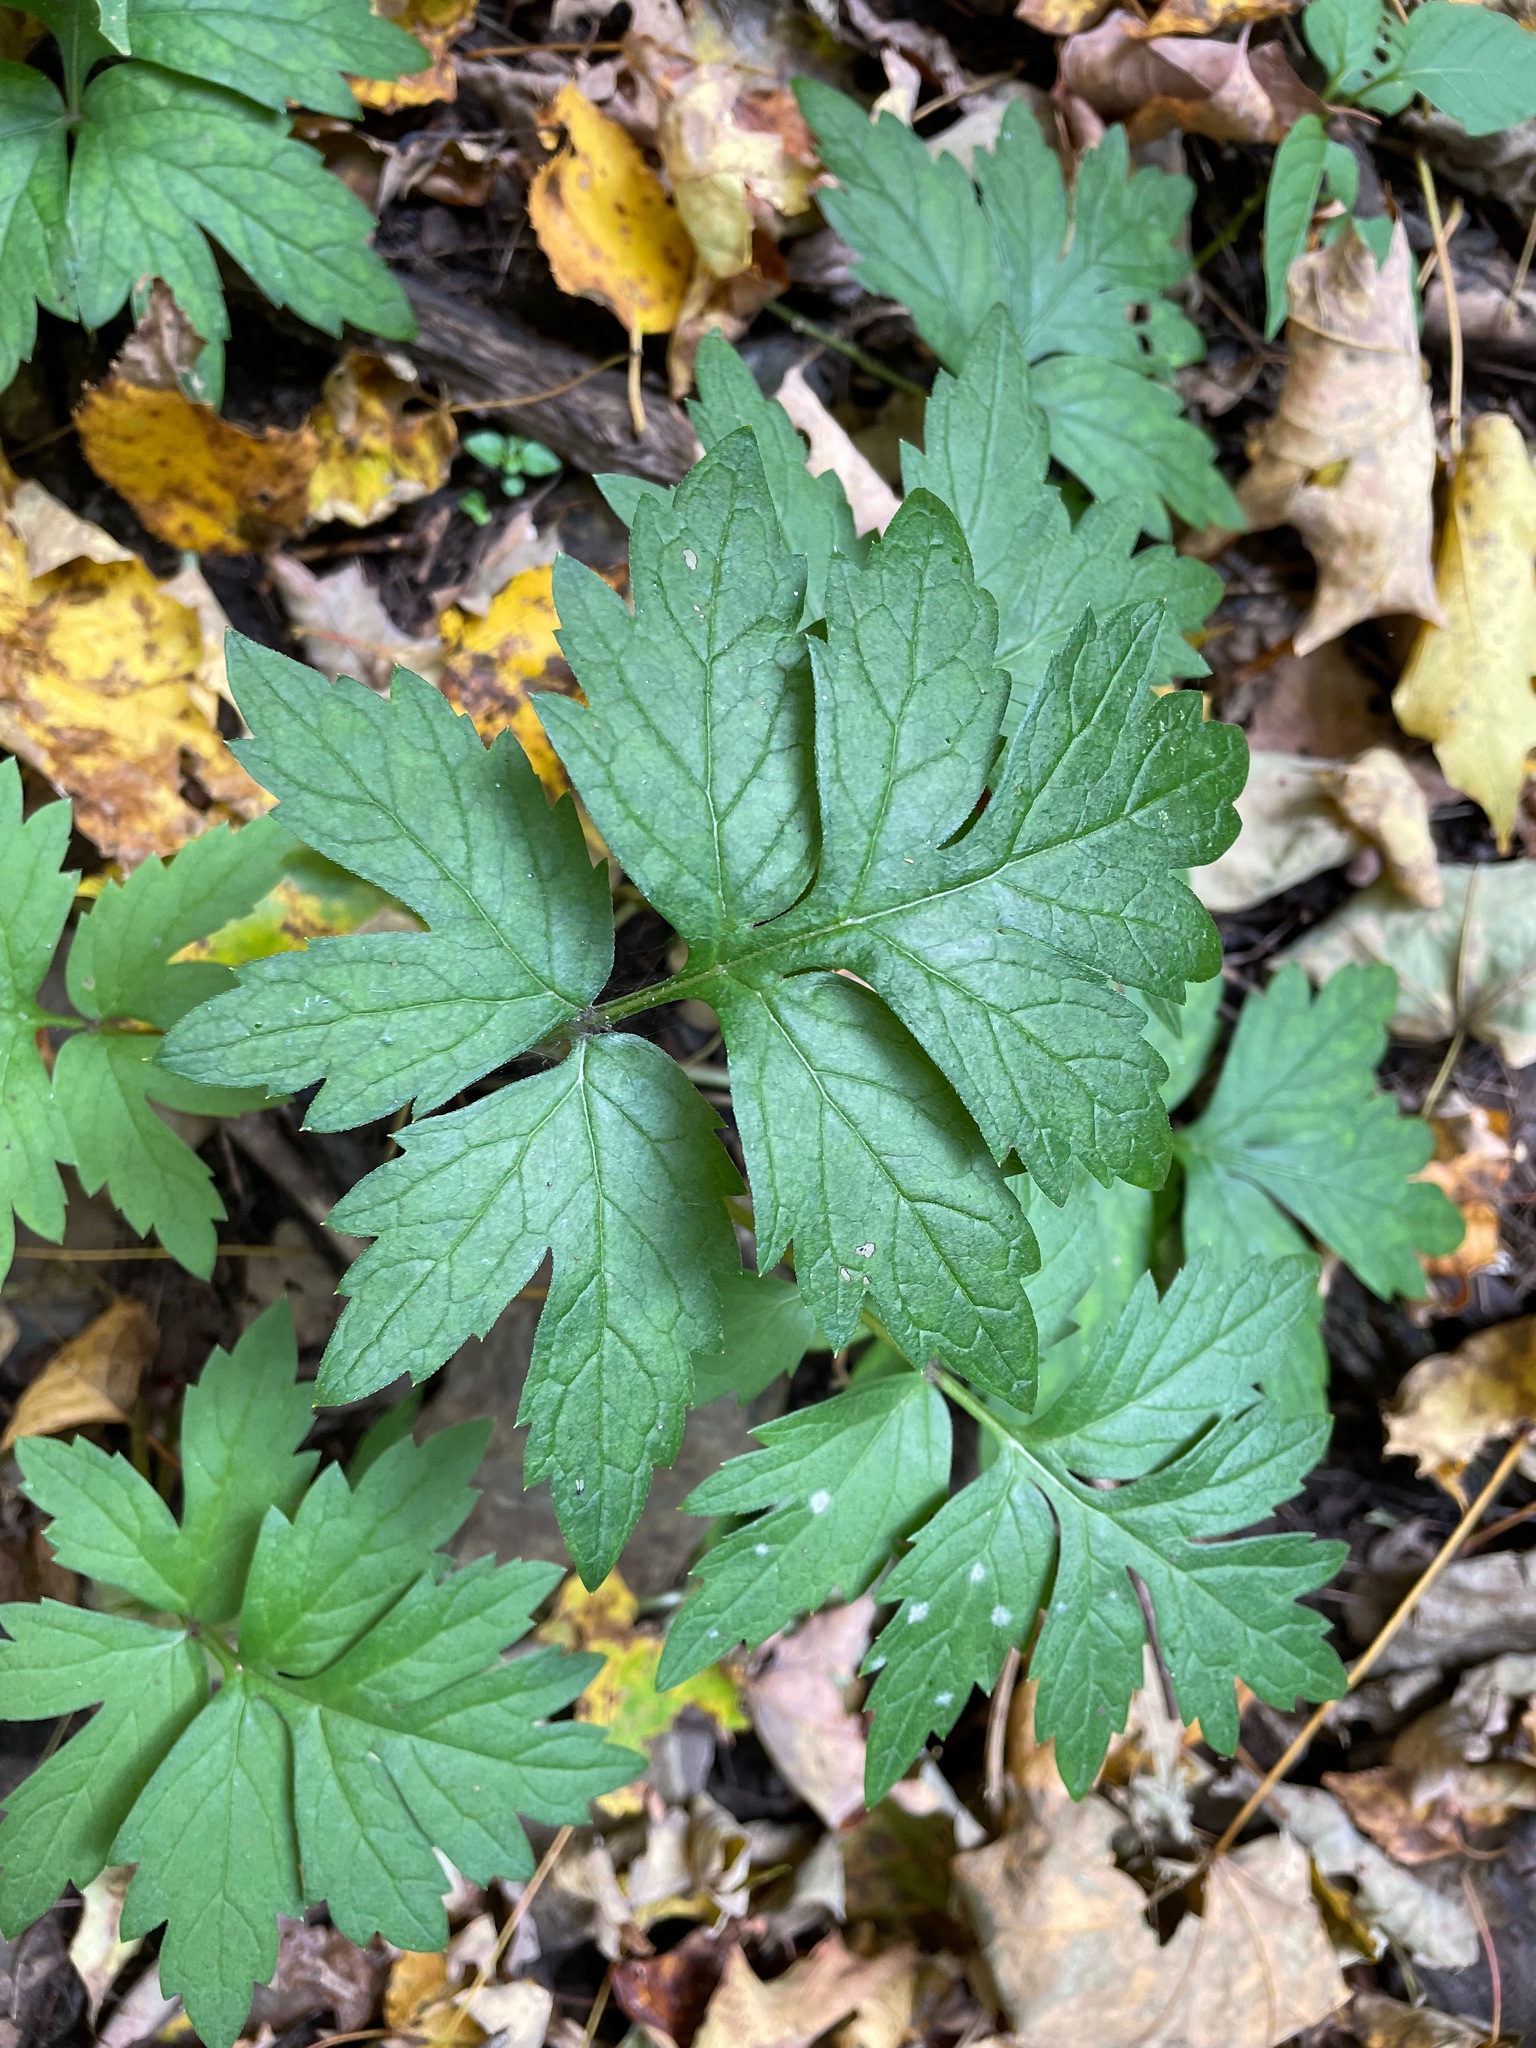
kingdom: Plantae
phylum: Tracheophyta
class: Magnoliopsida
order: Boraginales
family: Hydrophyllaceae
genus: Hydrophyllum
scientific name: Hydrophyllum virginianum
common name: Virginia waterleaf
